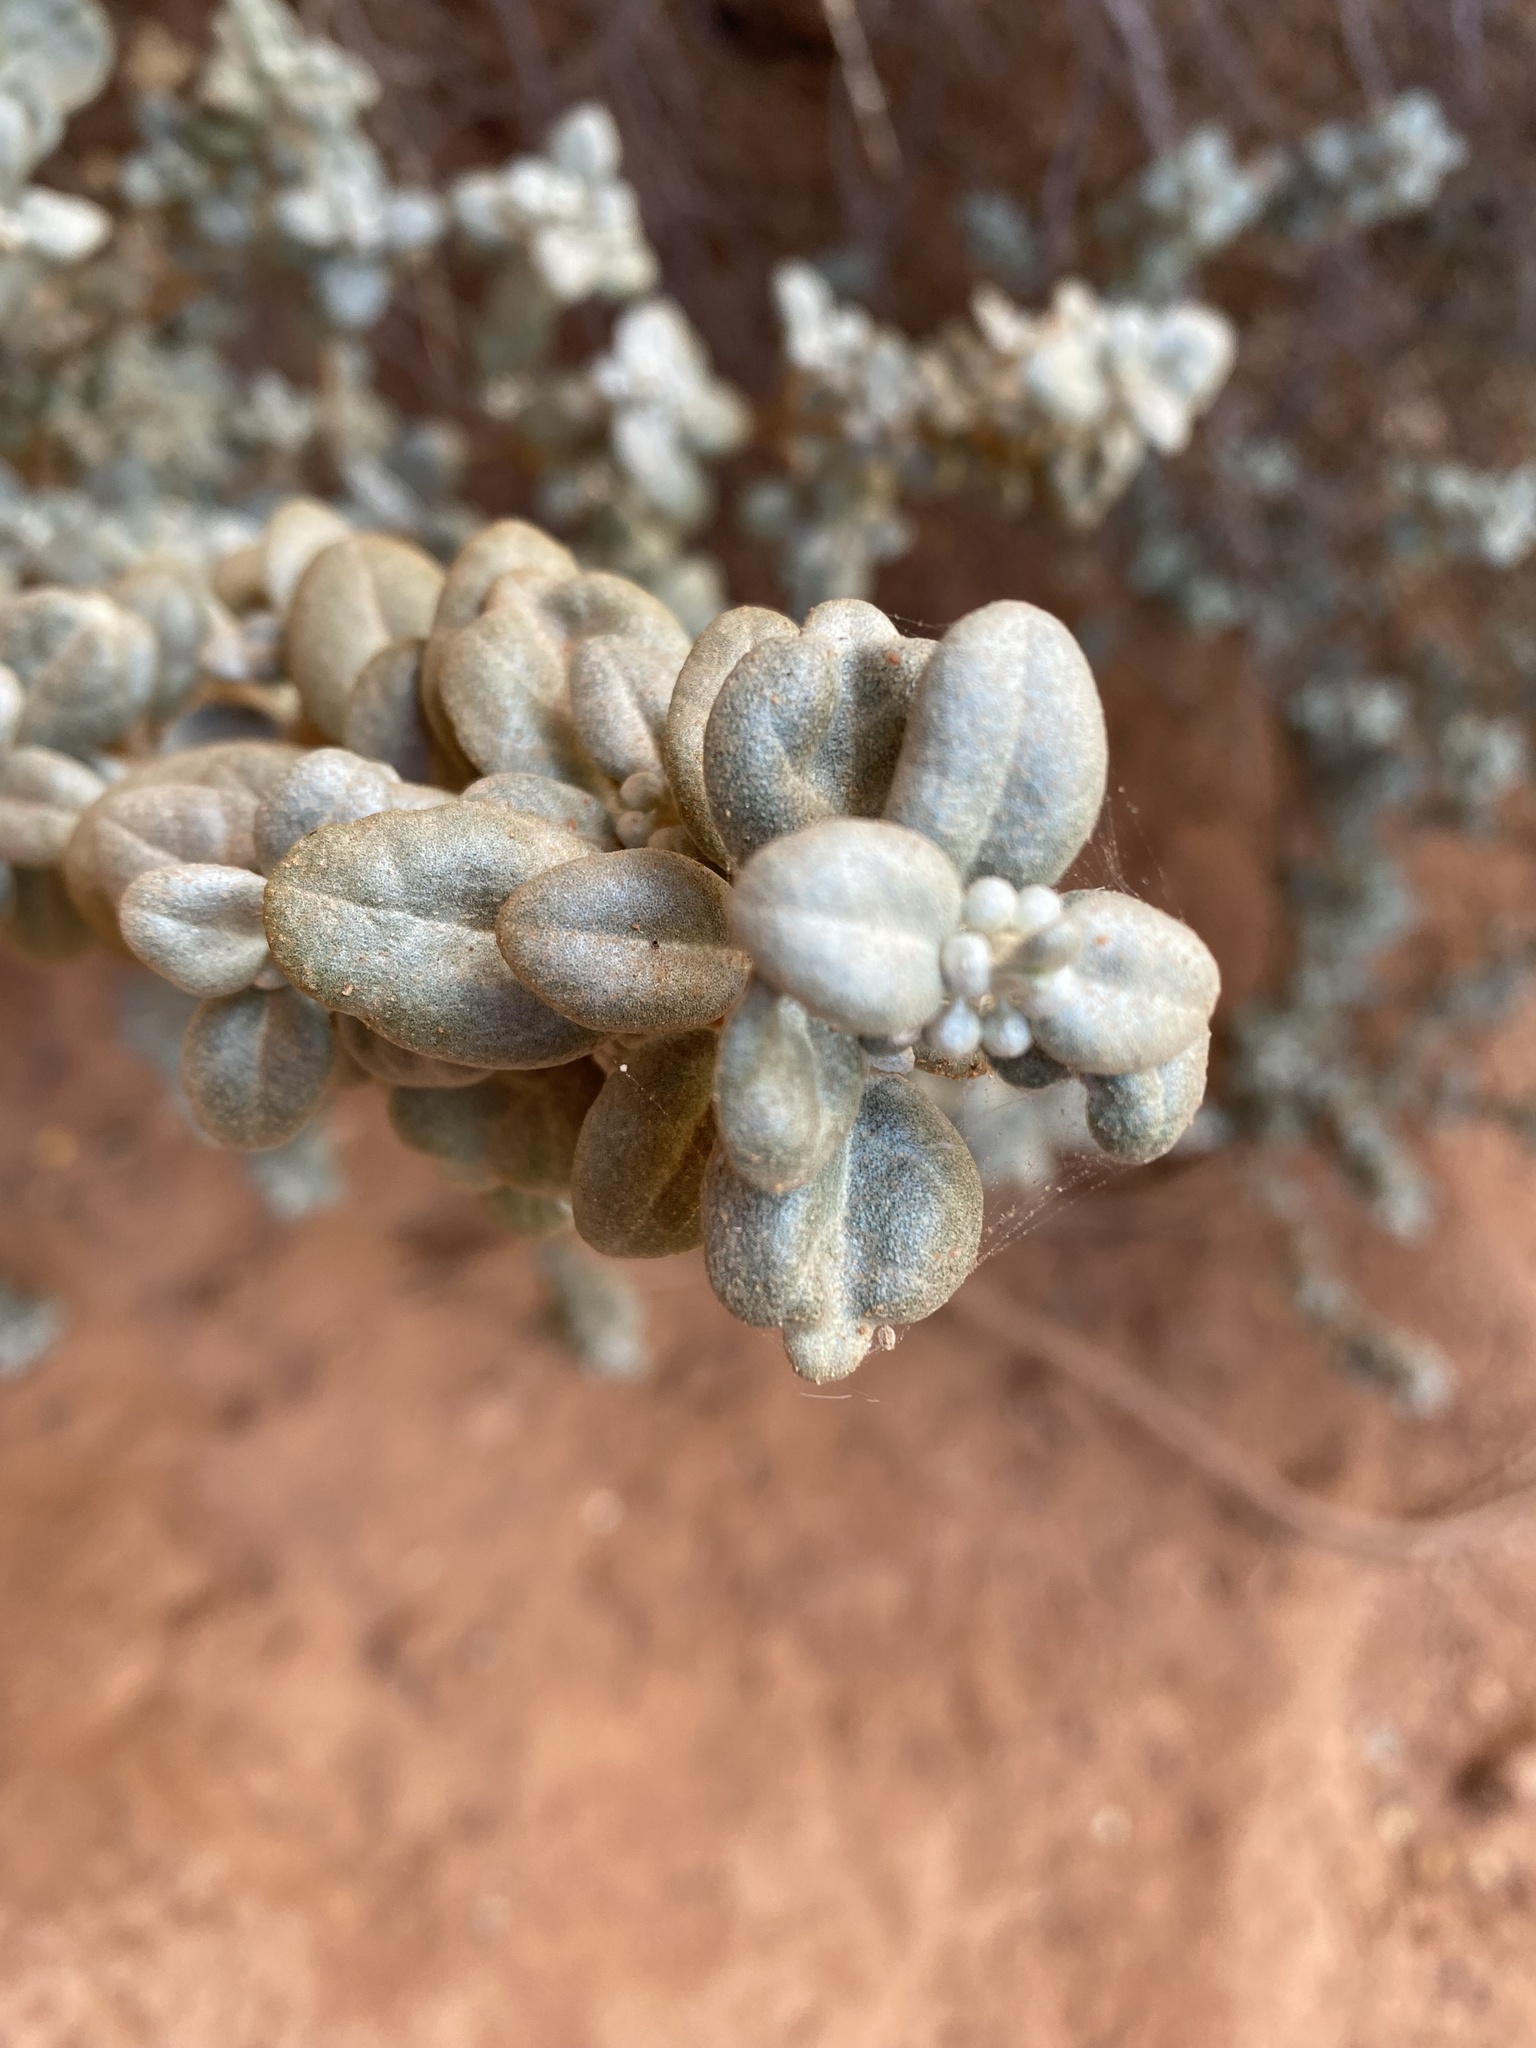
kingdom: Plantae
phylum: Tracheophyta
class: Magnoliopsida
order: Rosales
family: Elaeagnaceae
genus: Shepherdia
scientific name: Shepherdia rotundifolia
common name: Silverscale
